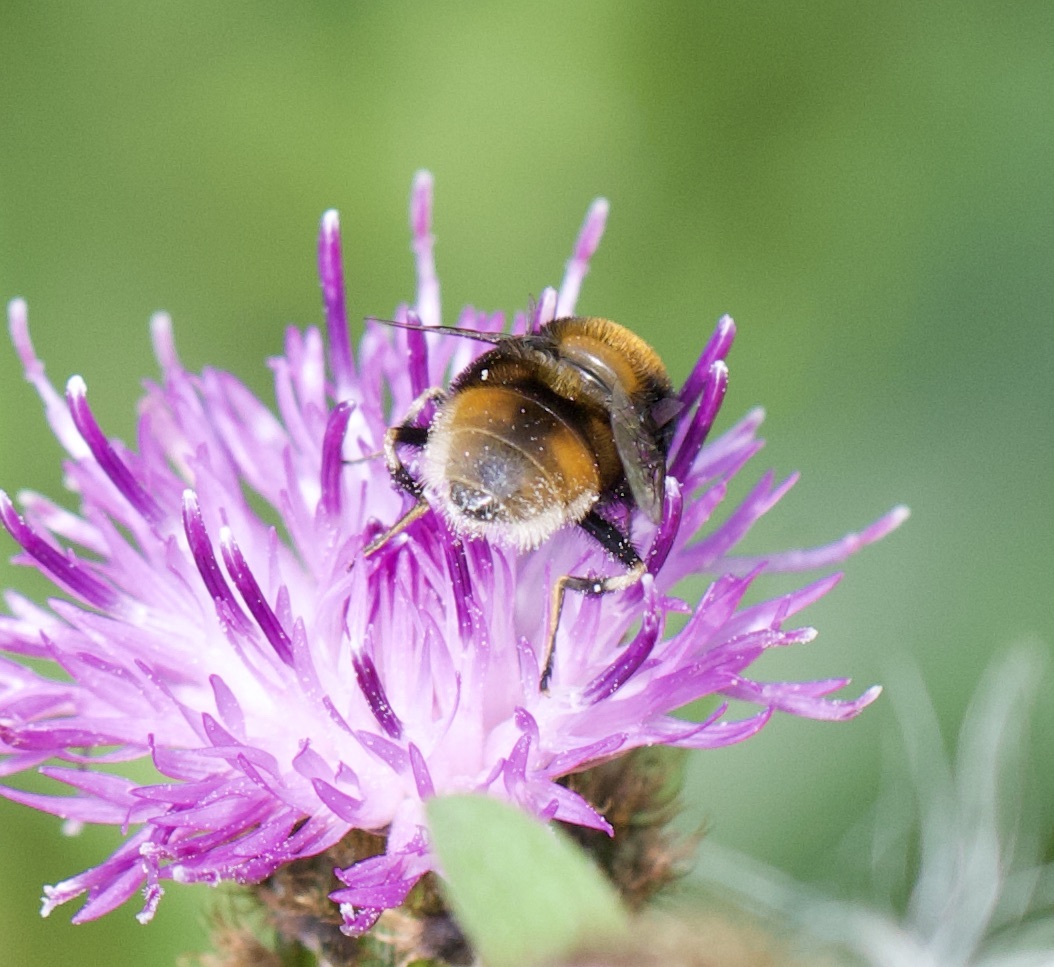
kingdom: Animalia
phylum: Arthropoda
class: Insecta
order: Diptera
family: Syrphidae
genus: Eristalis
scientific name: Eristalis intricaria
